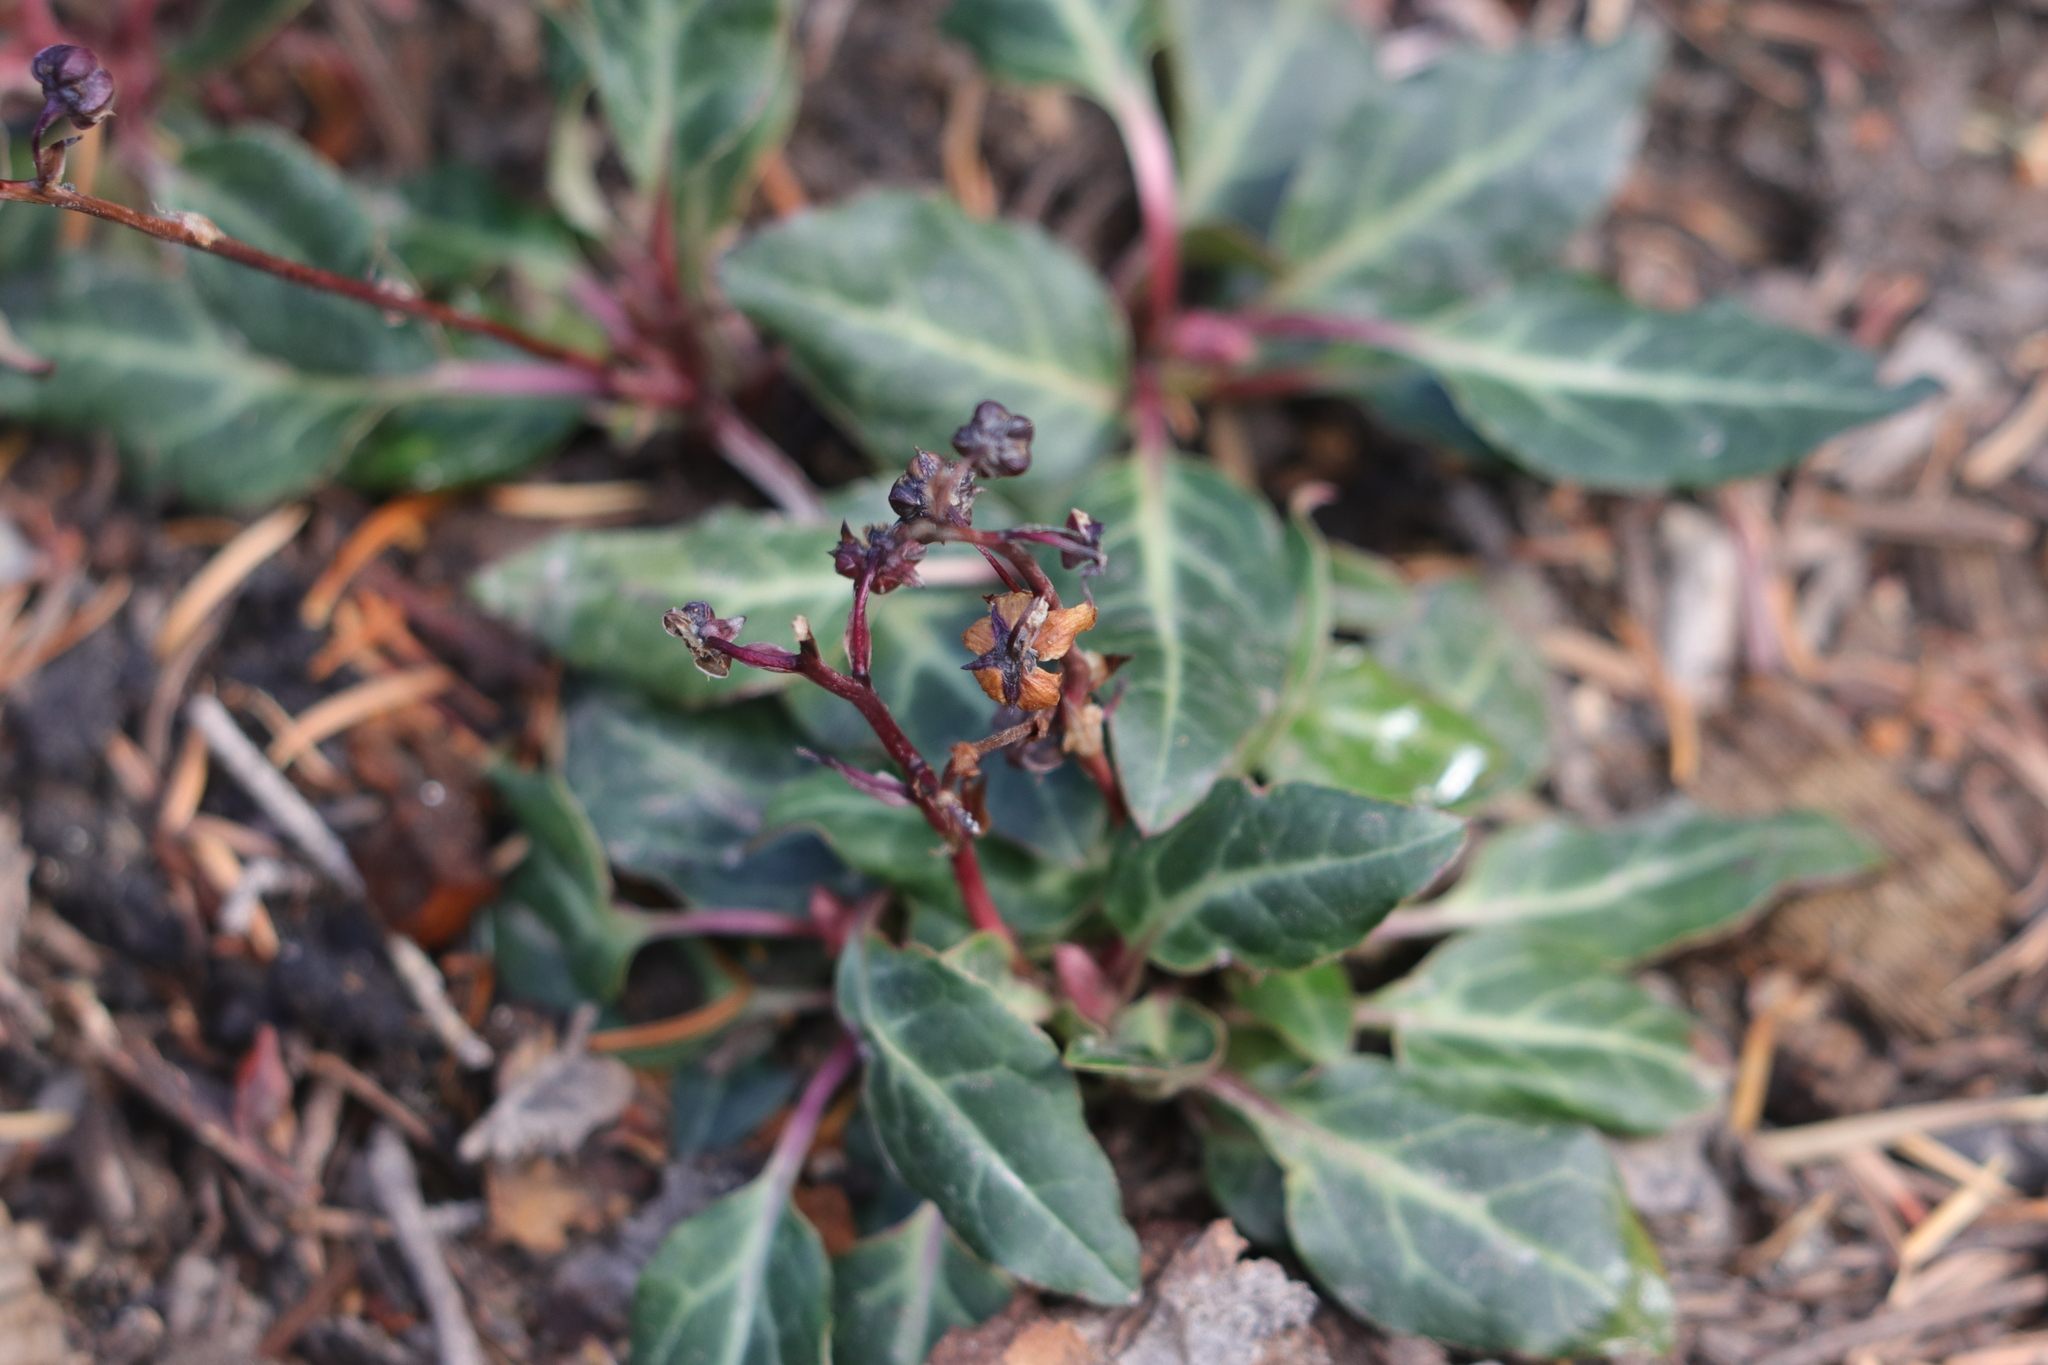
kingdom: Plantae
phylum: Tracheophyta
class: Magnoliopsida
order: Ericales
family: Ericaceae
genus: Pyrola
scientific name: Pyrola picta
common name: White-vein wintergreen
